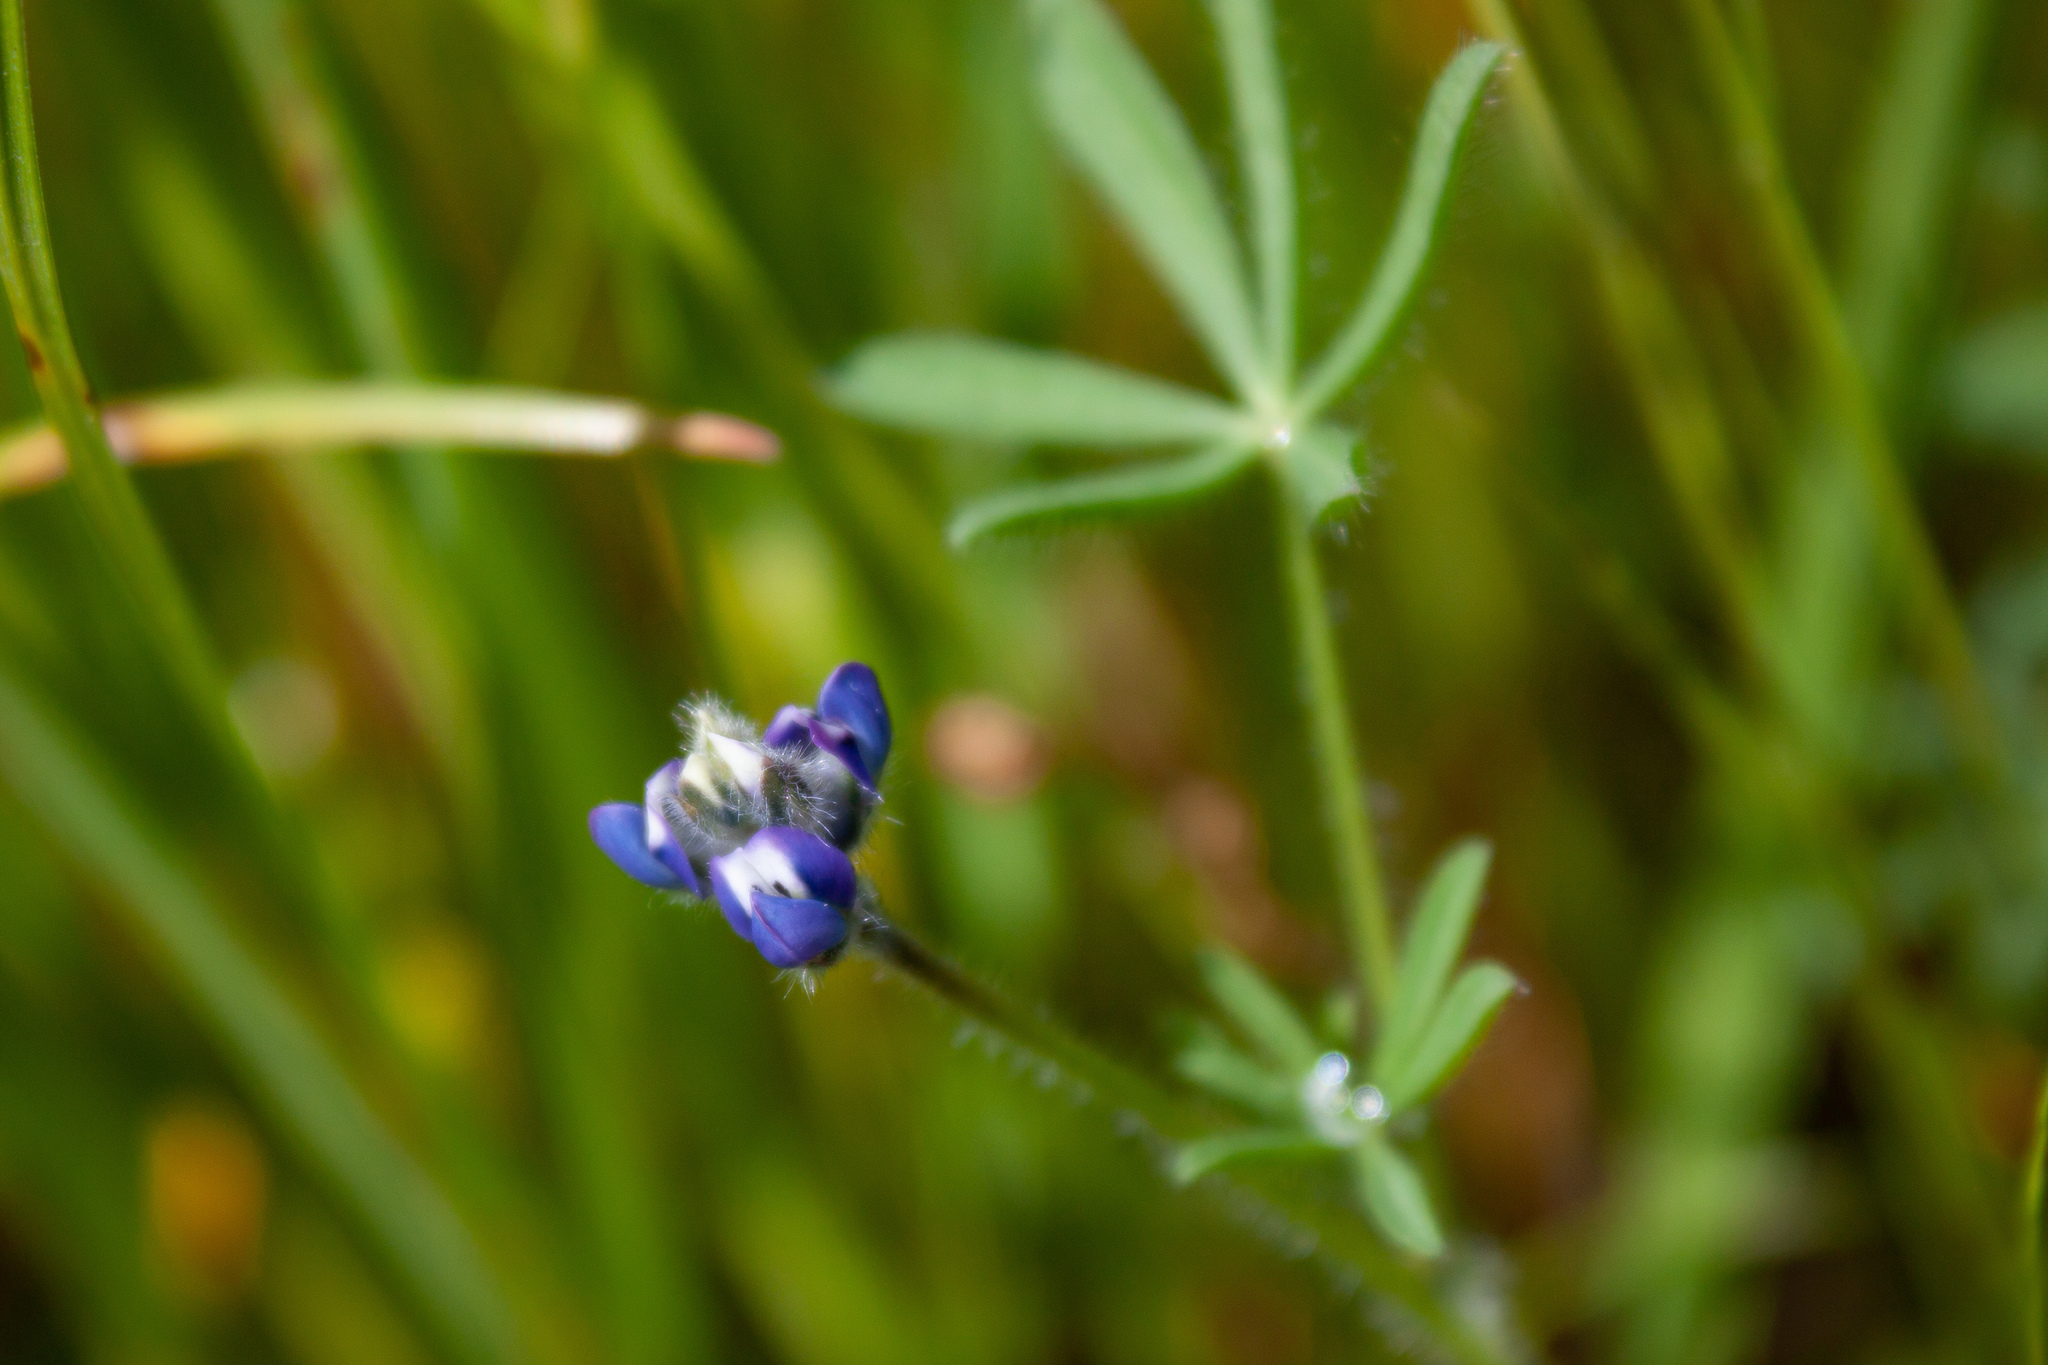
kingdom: Plantae
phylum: Tracheophyta
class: Magnoliopsida
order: Fabales
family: Fabaceae
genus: Lupinus
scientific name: Lupinus bicolor
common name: Miniature lupine
